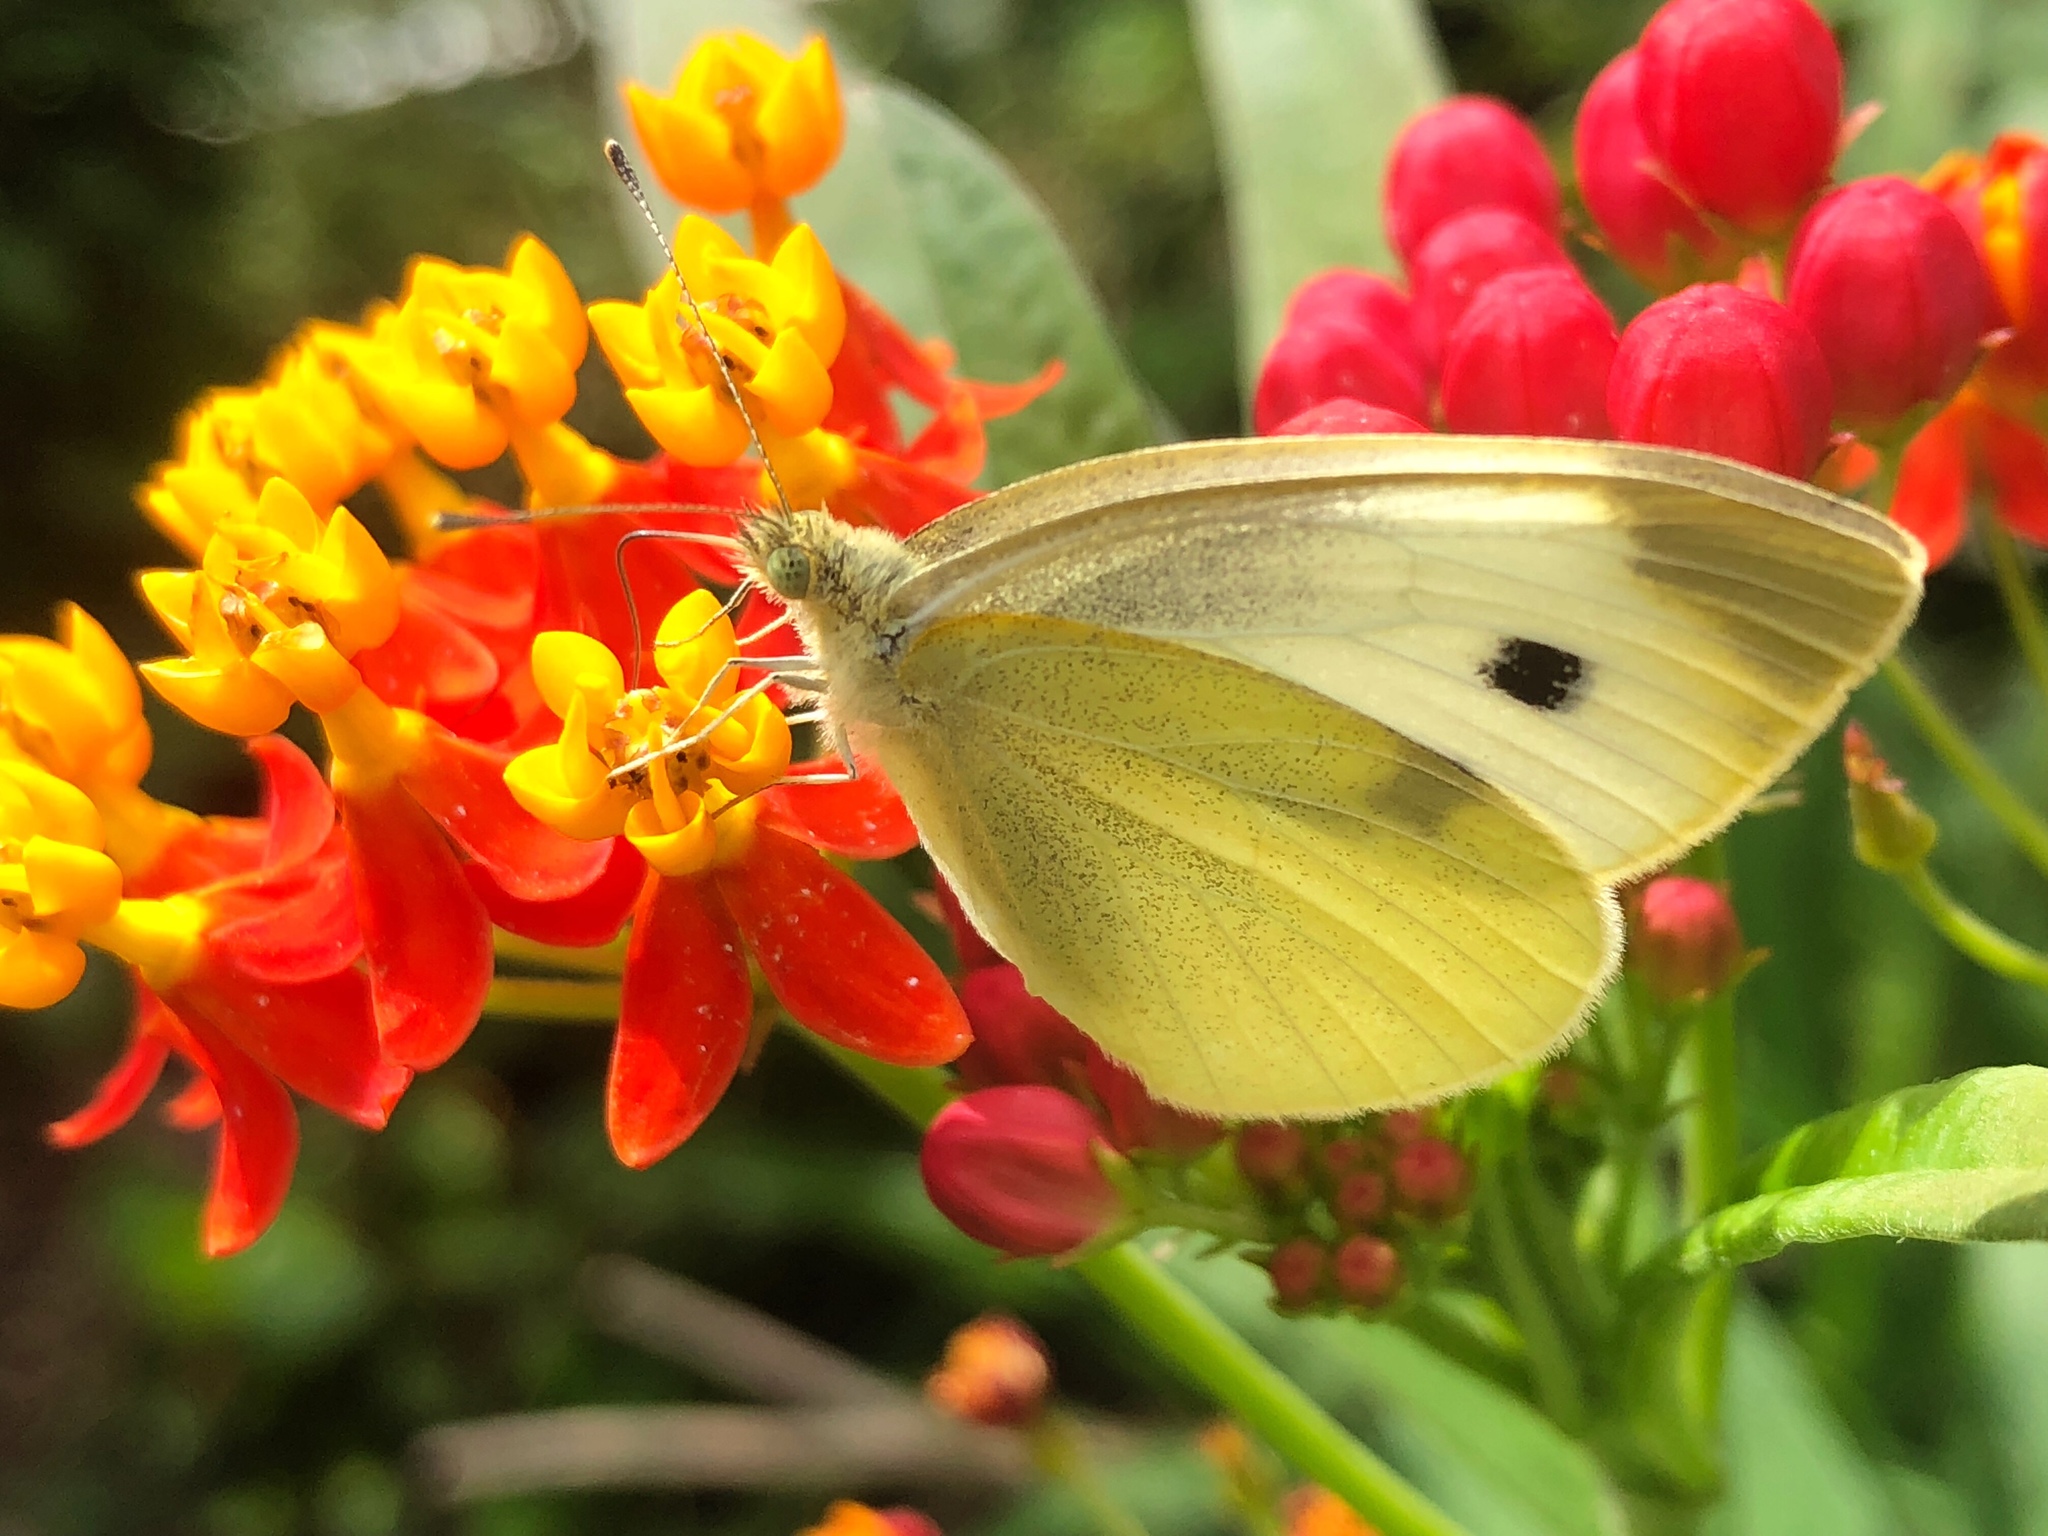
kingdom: Animalia
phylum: Arthropoda
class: Insecta
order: Lepidoptera
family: Pieridae
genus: Pieris
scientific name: Pieris rapae
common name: Small white
